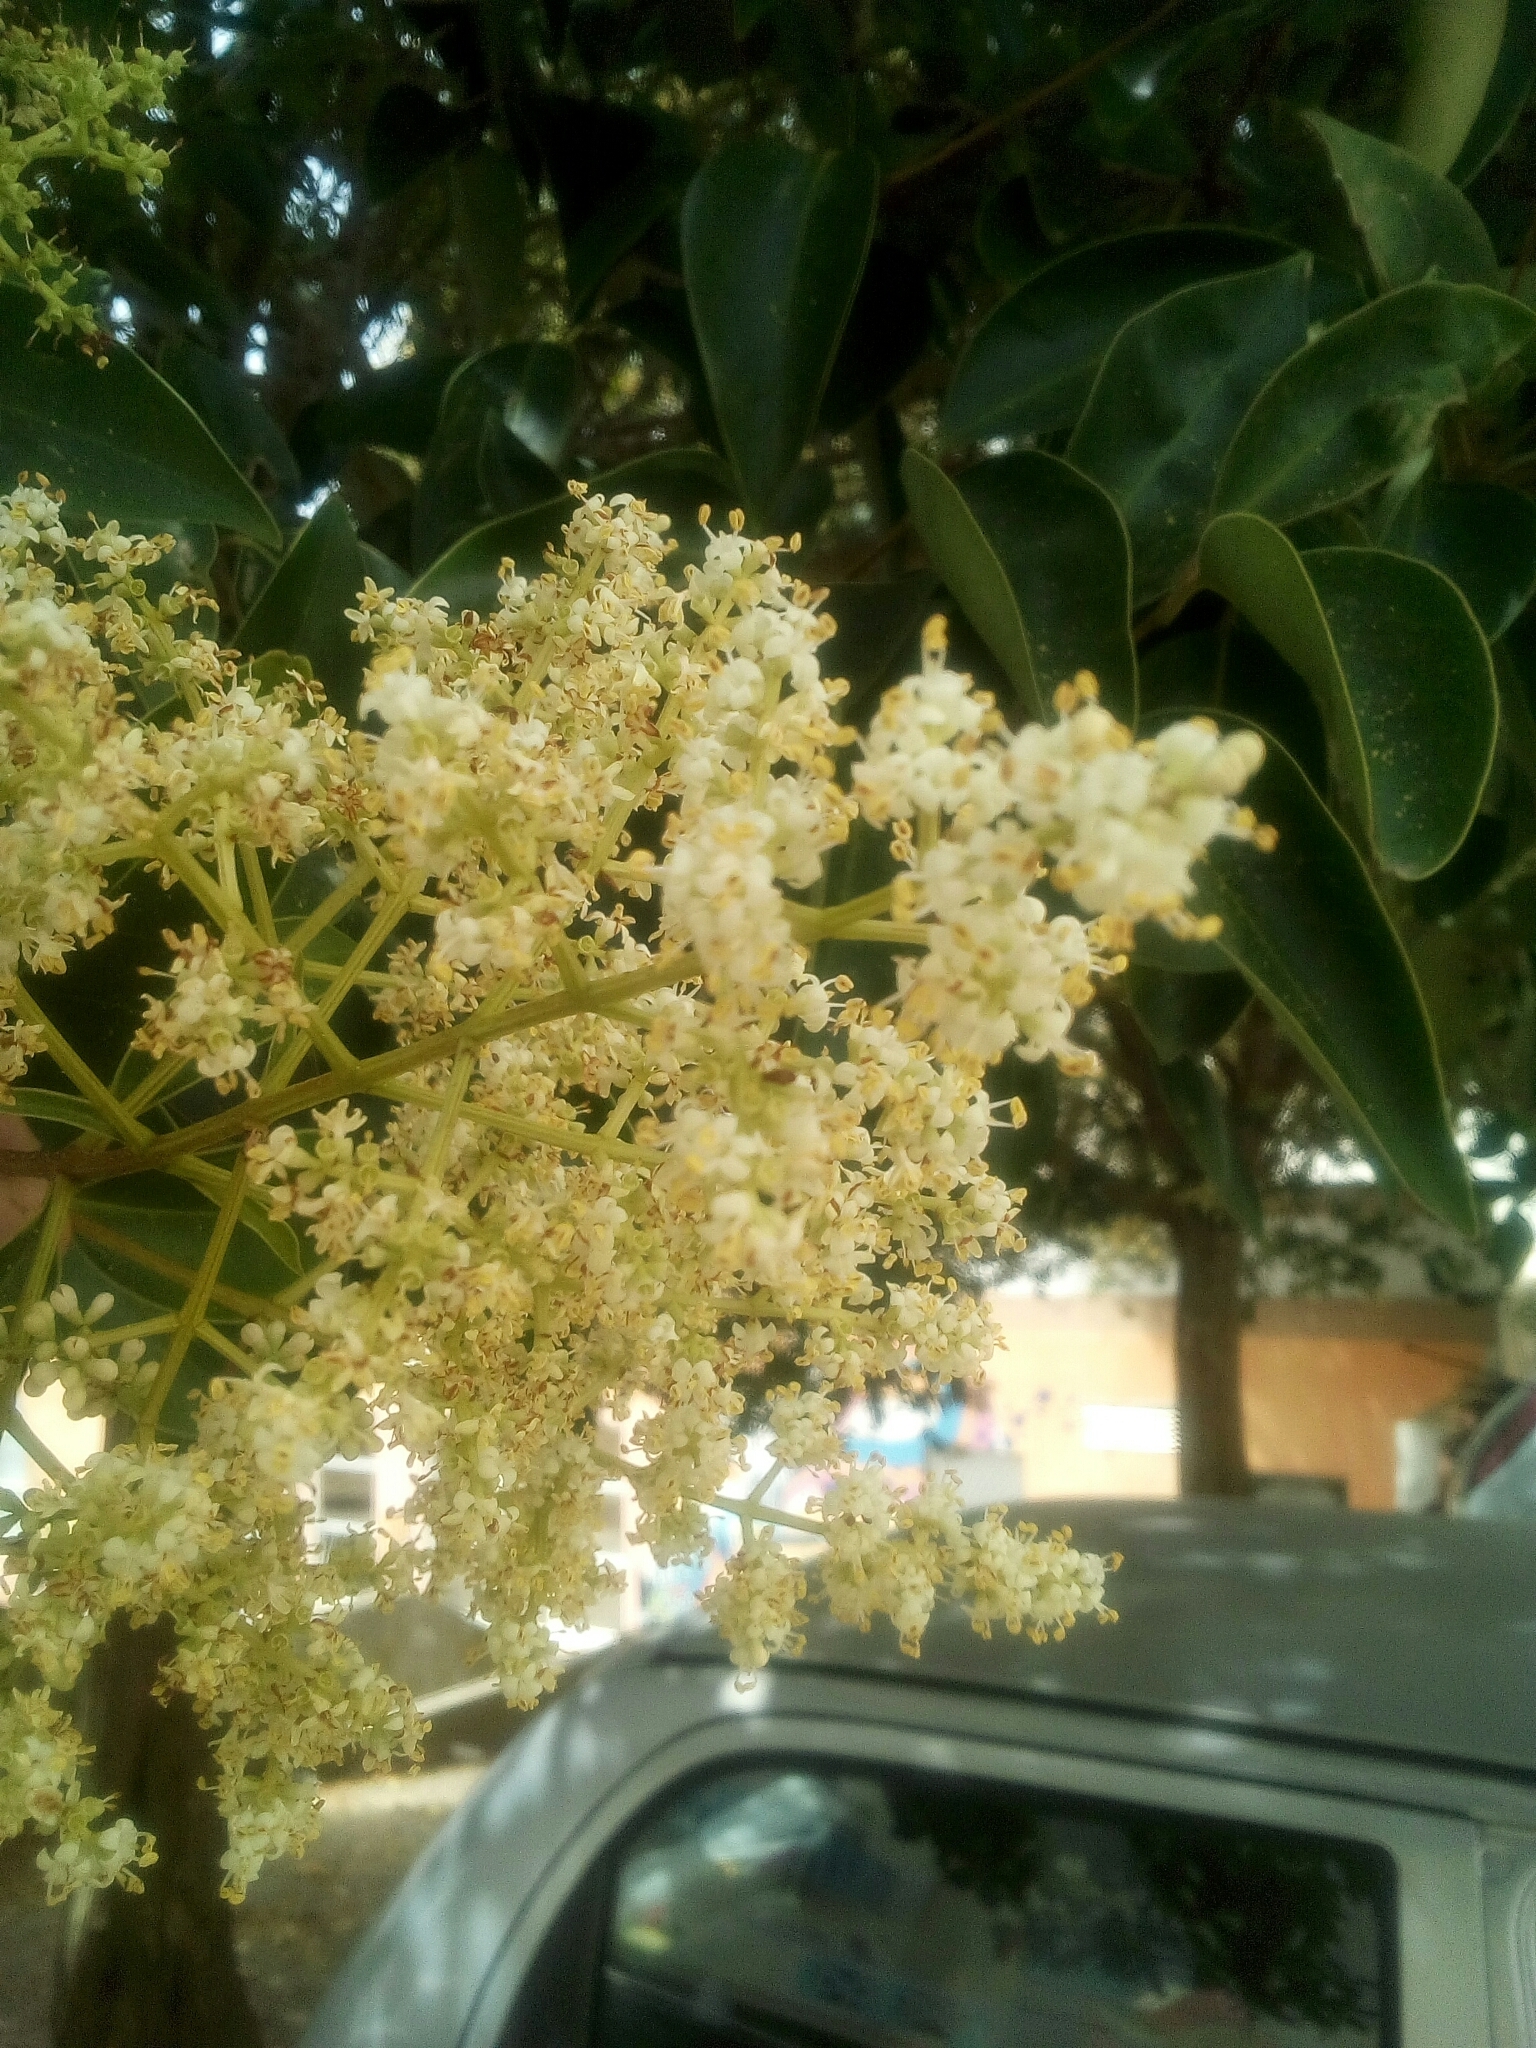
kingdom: Plantae
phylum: Tracheophyta
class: Magnoliopsida
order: Lamiales
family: Oleaceae
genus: Ligustrum
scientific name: Ligustrum lucidum
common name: Glossy privet
